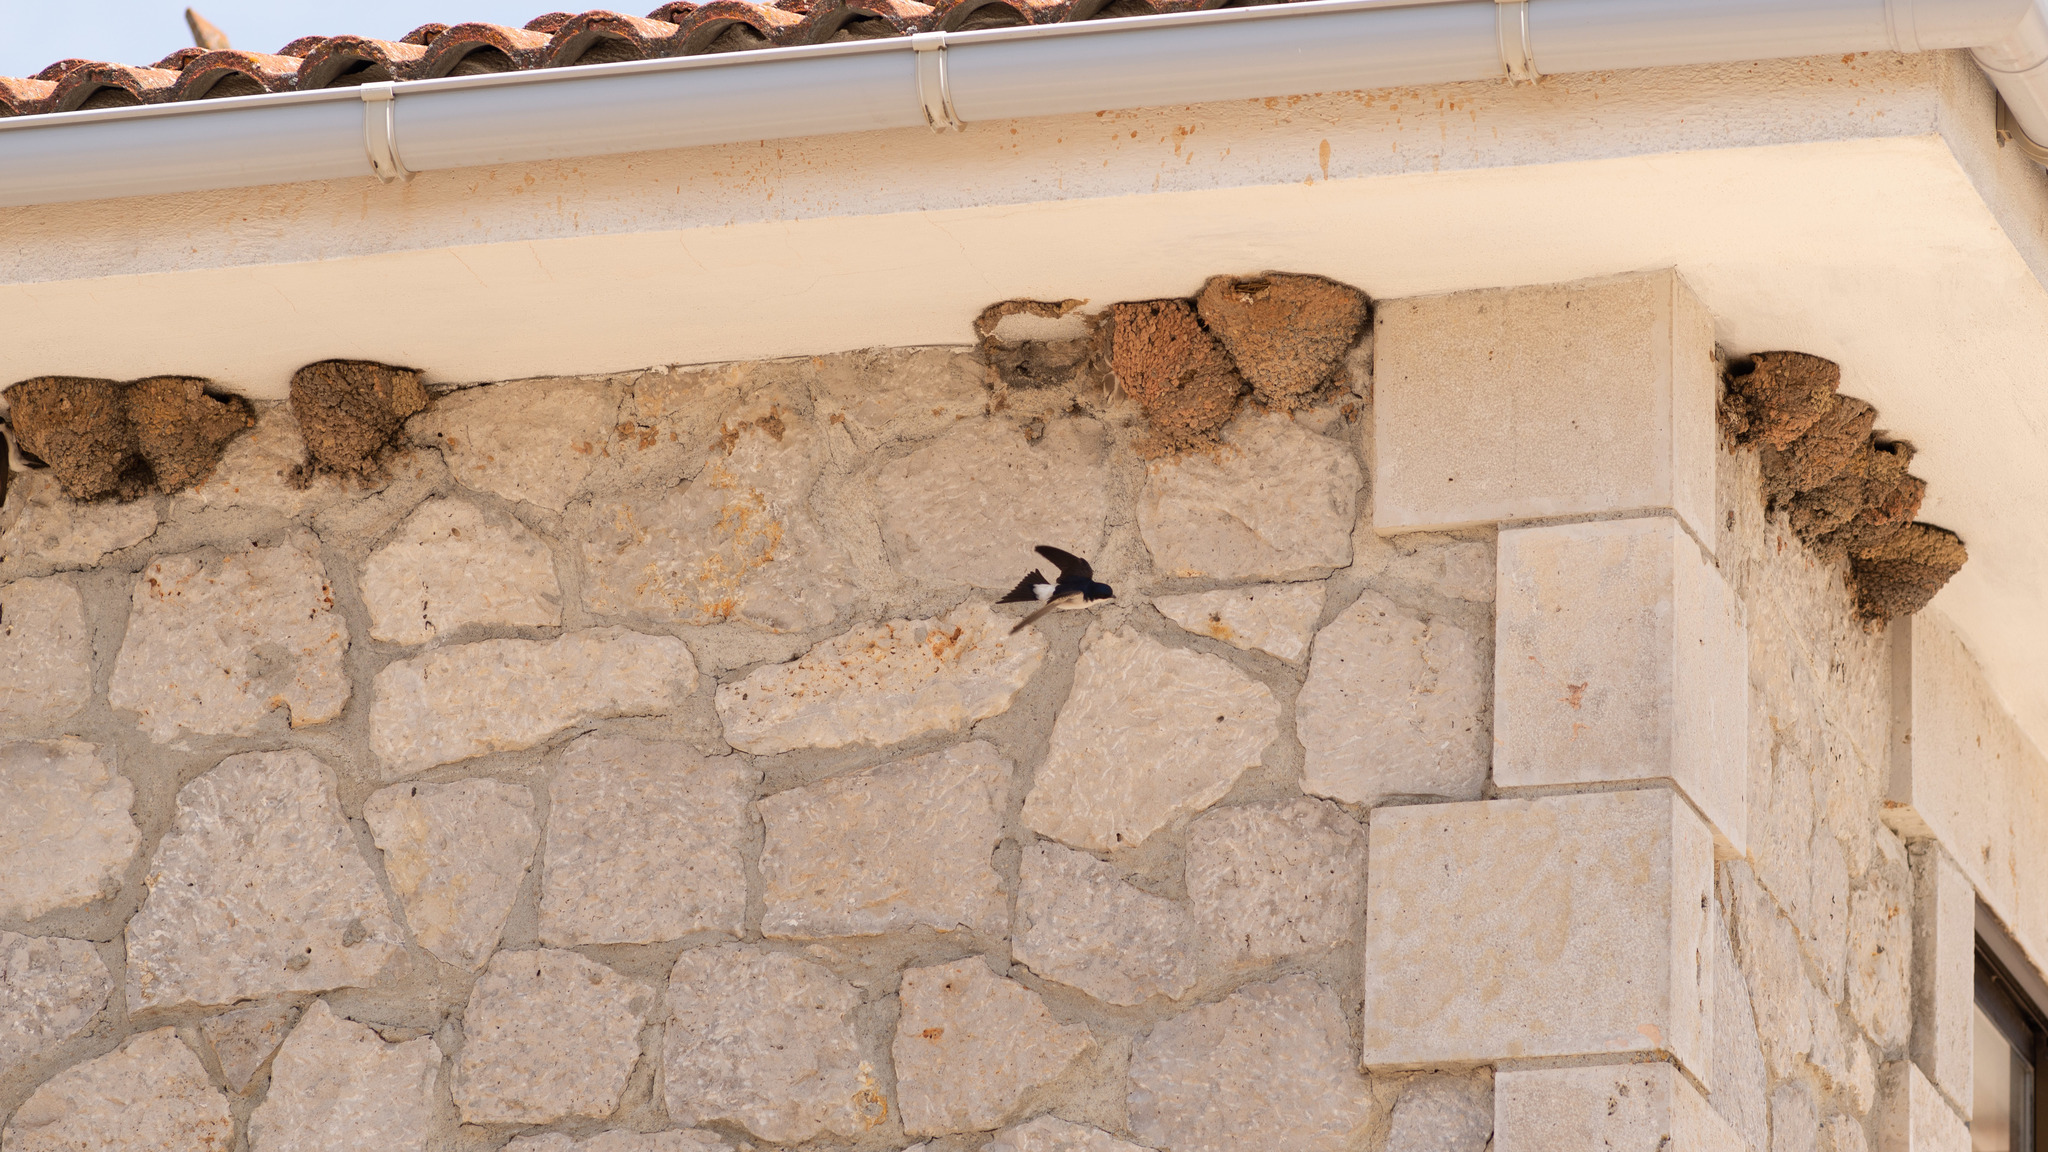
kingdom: Animalia
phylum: Chordata
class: Aves
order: Passeriformes
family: Hirundinidae
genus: Delichon
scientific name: Delichon urbicum
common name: Common house martin
